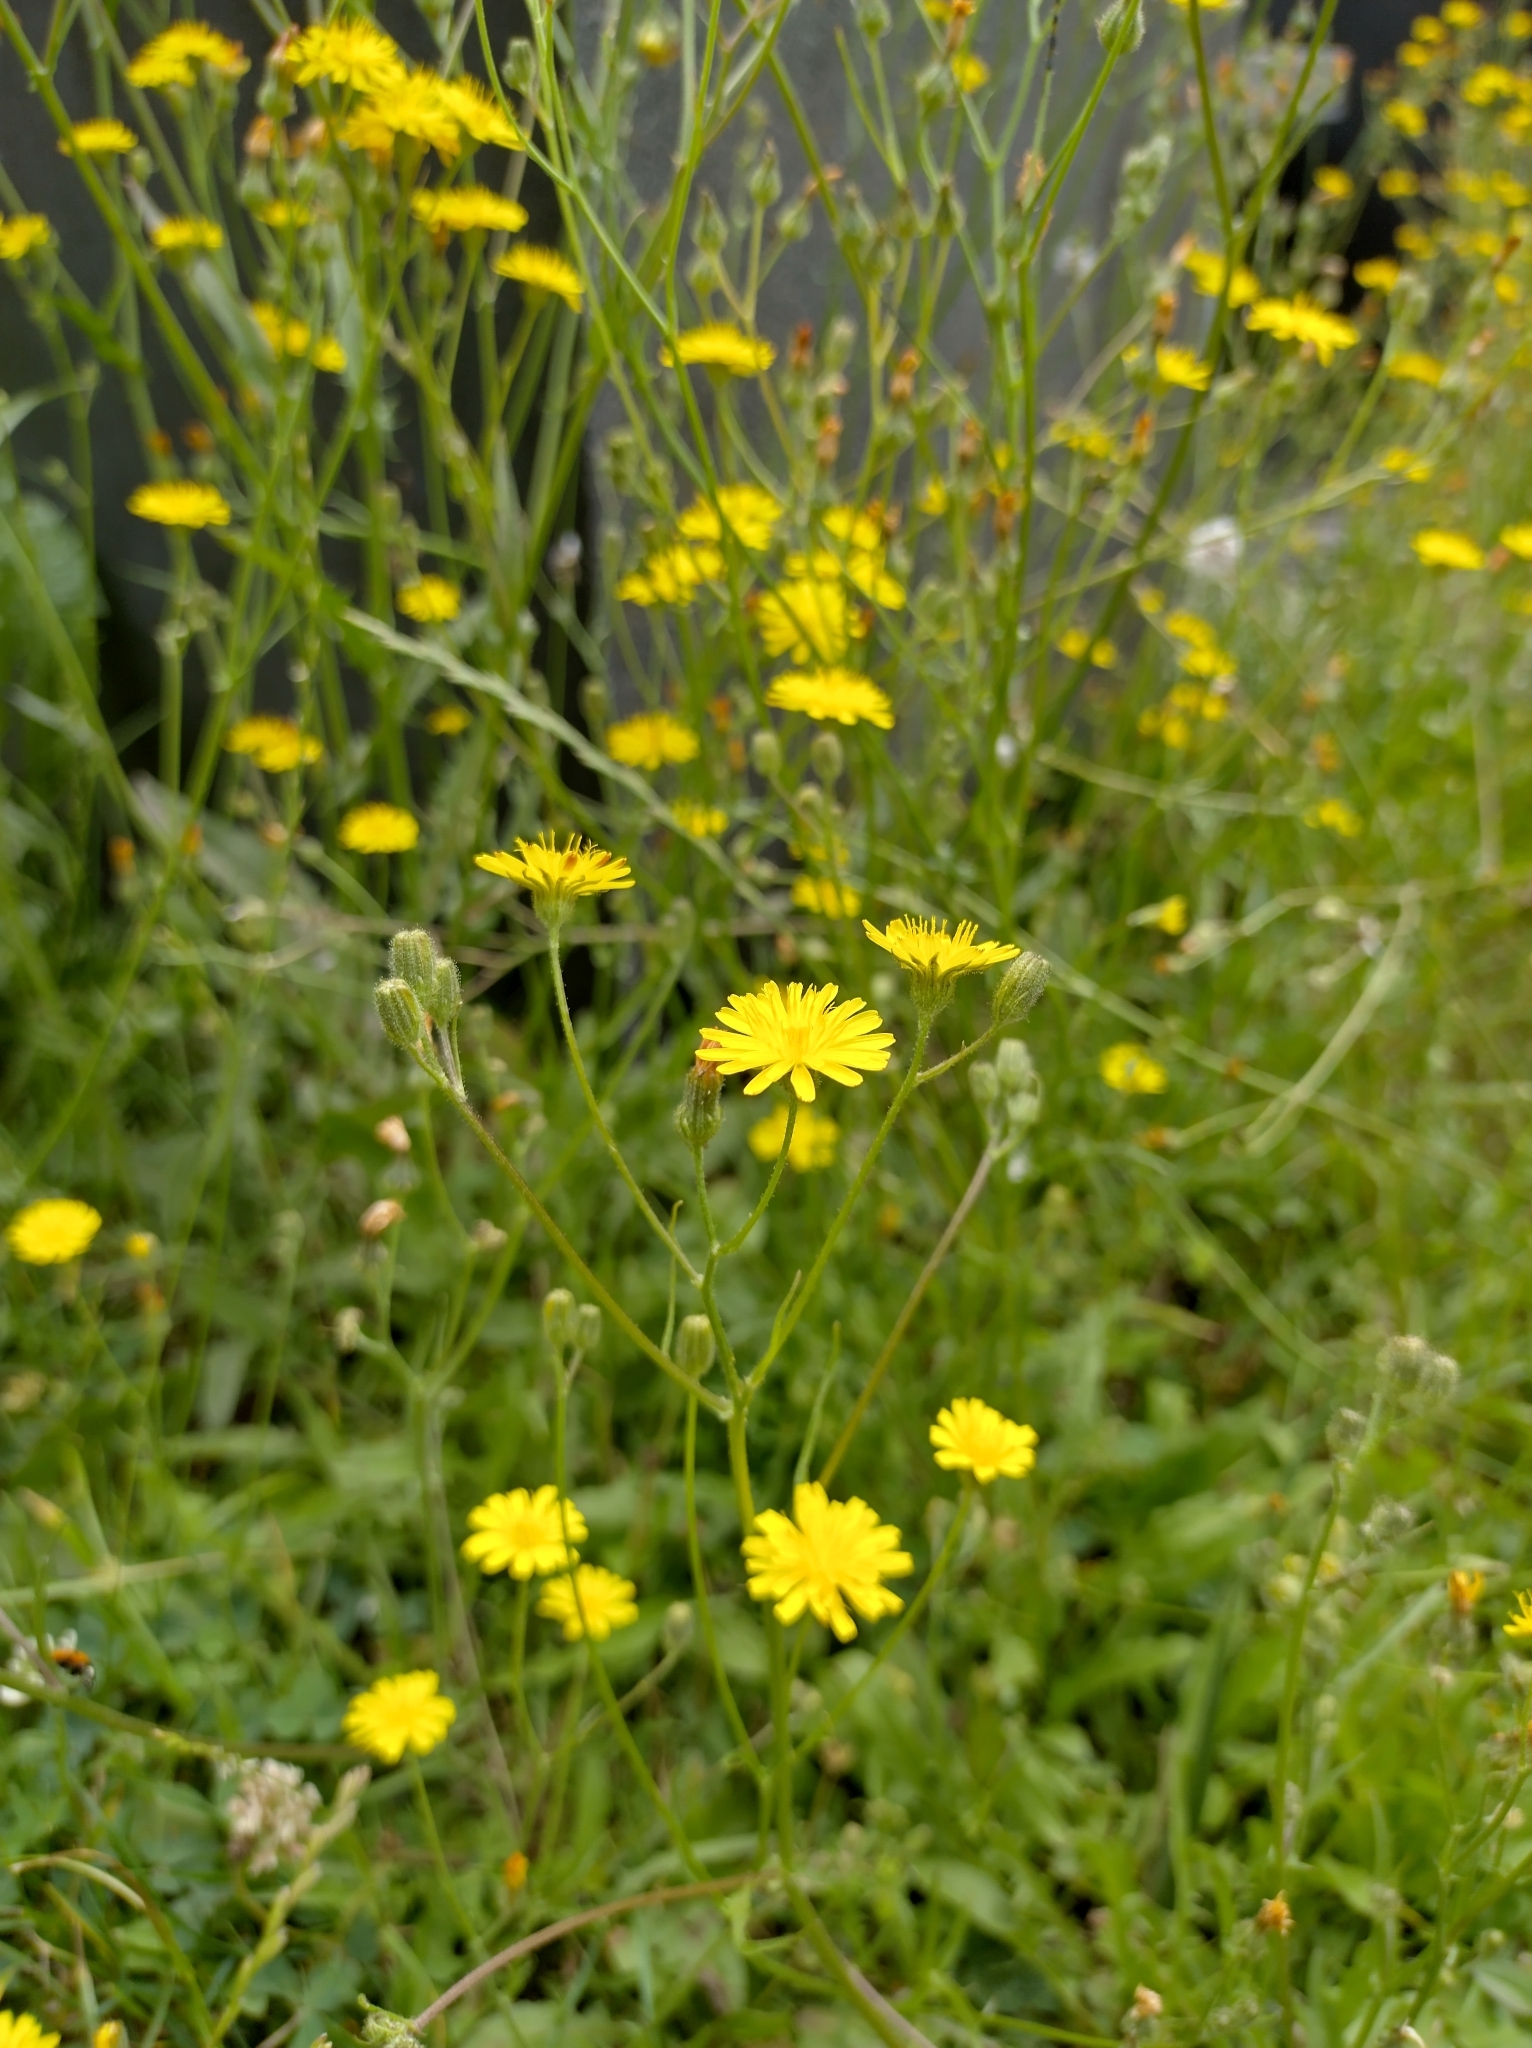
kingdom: Plantae
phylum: Tracheophyta
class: Magnoliopsida
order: Asterales
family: Asteraceae
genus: Crepis
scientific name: Crepis capillaris
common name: Smooth hawksbeard
